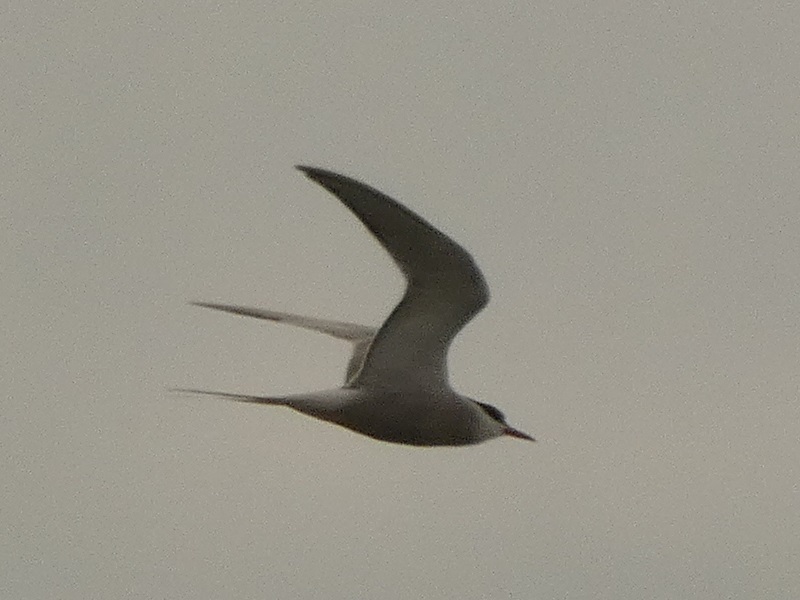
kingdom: Animalia
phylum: Chordata
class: Aves
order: Charadriiformes
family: Laridae
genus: Sterna
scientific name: Sterna hirundo
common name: Common tern
